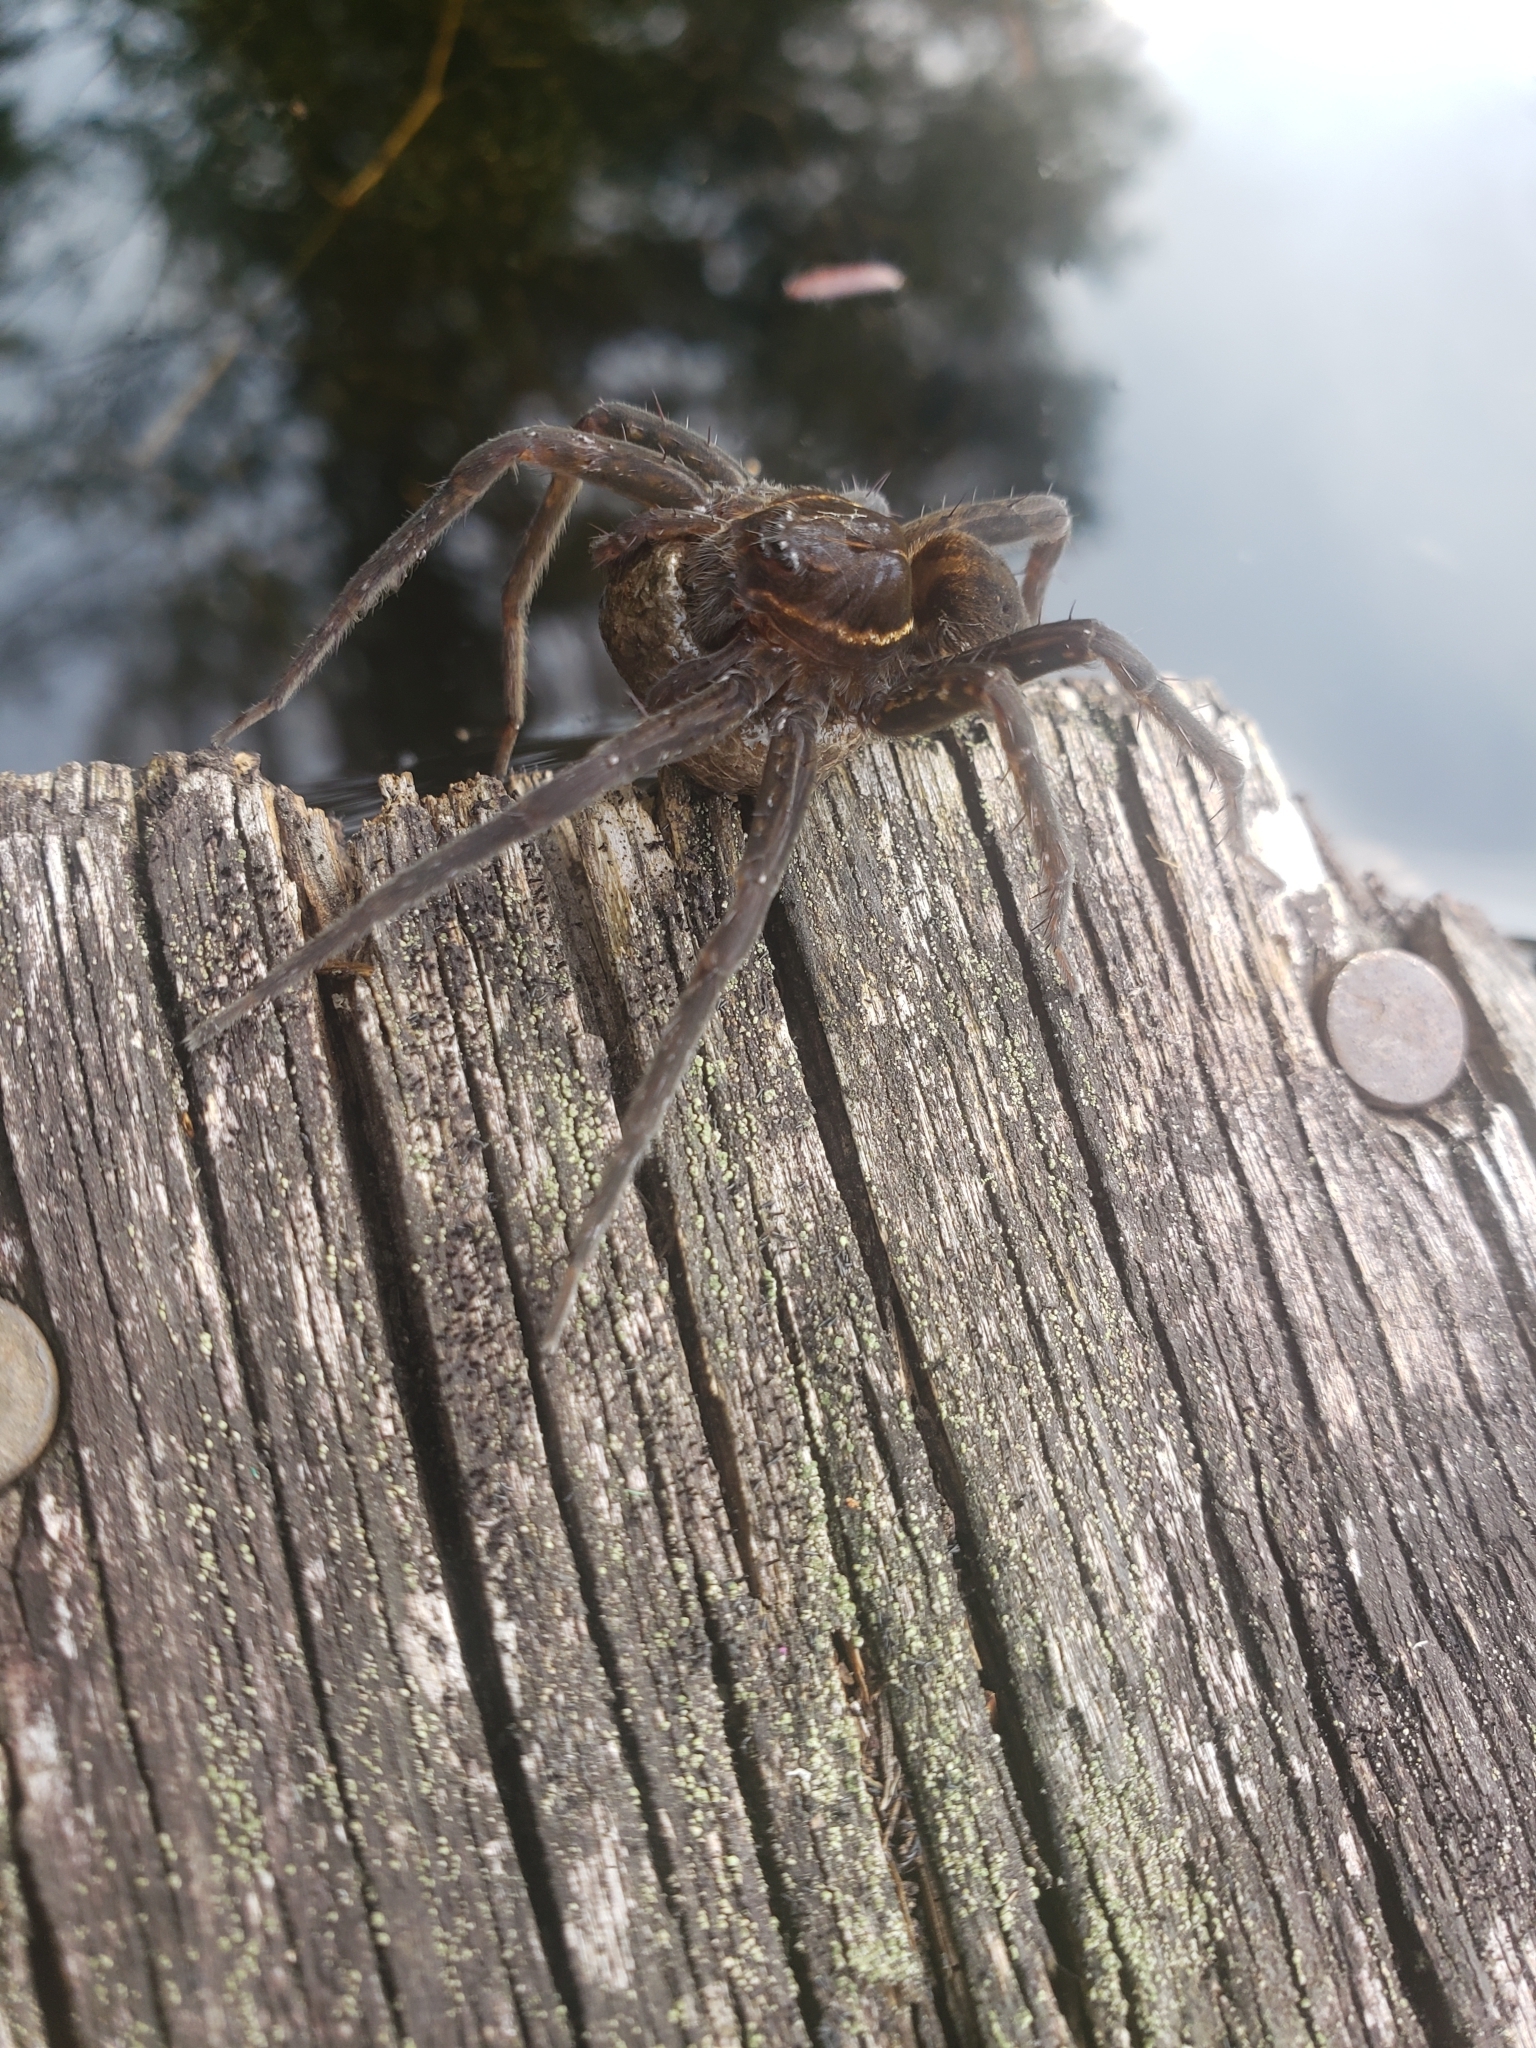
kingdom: Animalia
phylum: Arthropoda
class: Arachnida
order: Araneae
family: Pisauridae
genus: Dolomedes
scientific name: Dolomedes triton
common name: Six-spotted fishing spider
